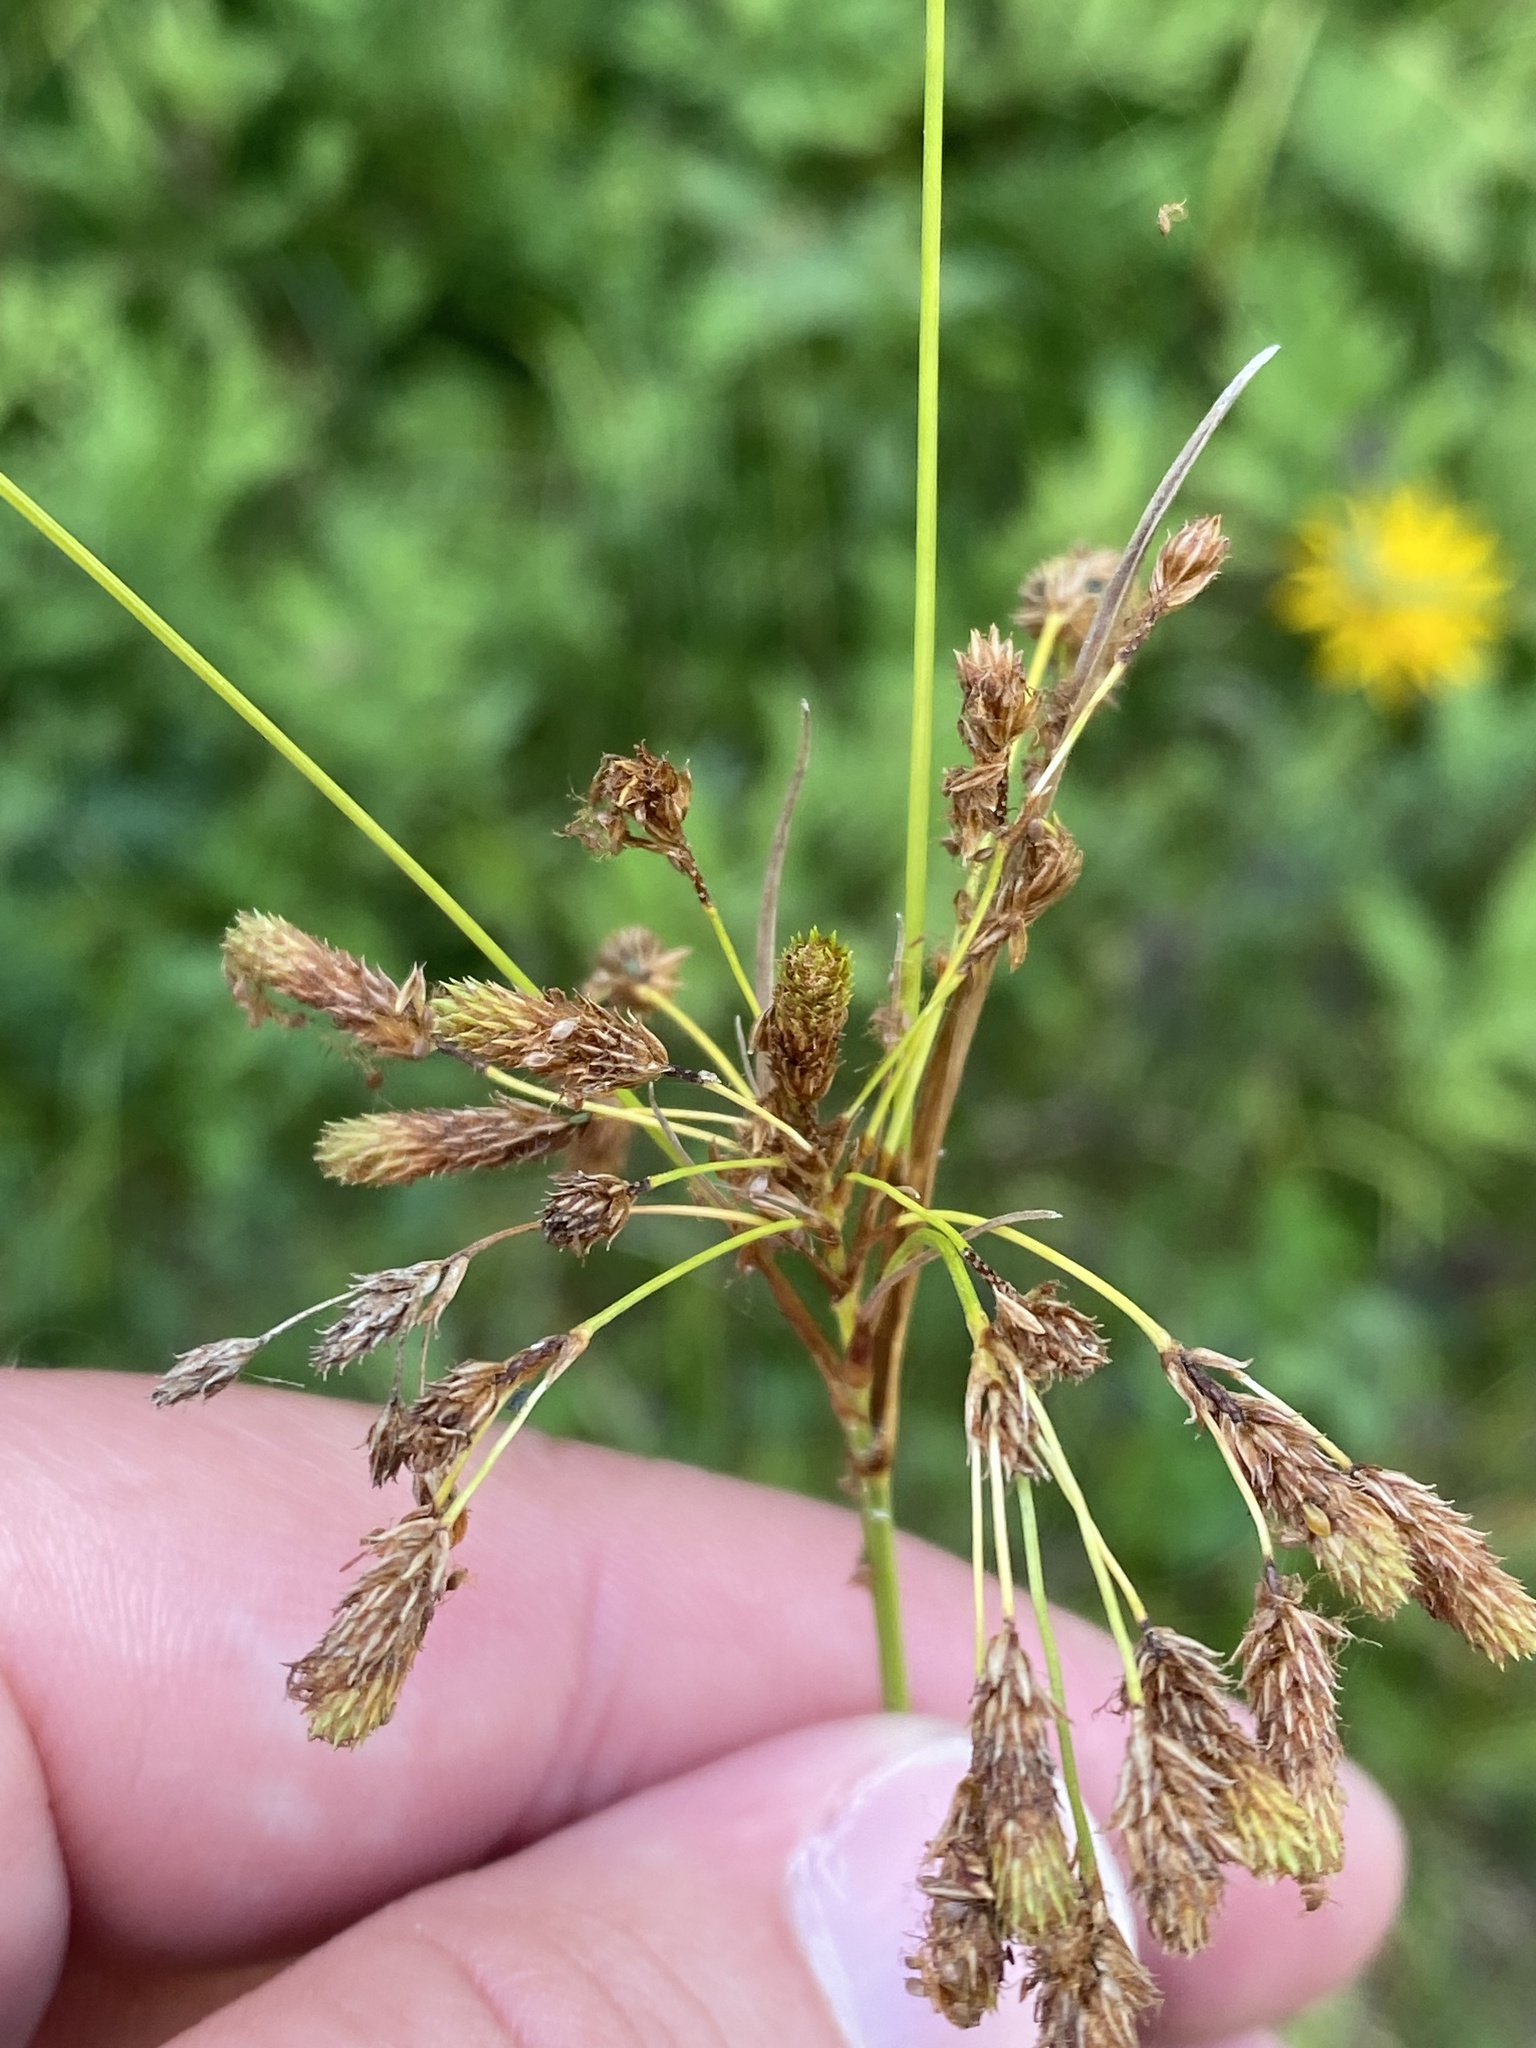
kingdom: Plantae
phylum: Tracheophyta
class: Liliopsida
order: Poales
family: Cyperaceae
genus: Scirpus
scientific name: Scirpus pendulus
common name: Nodding bulrush
